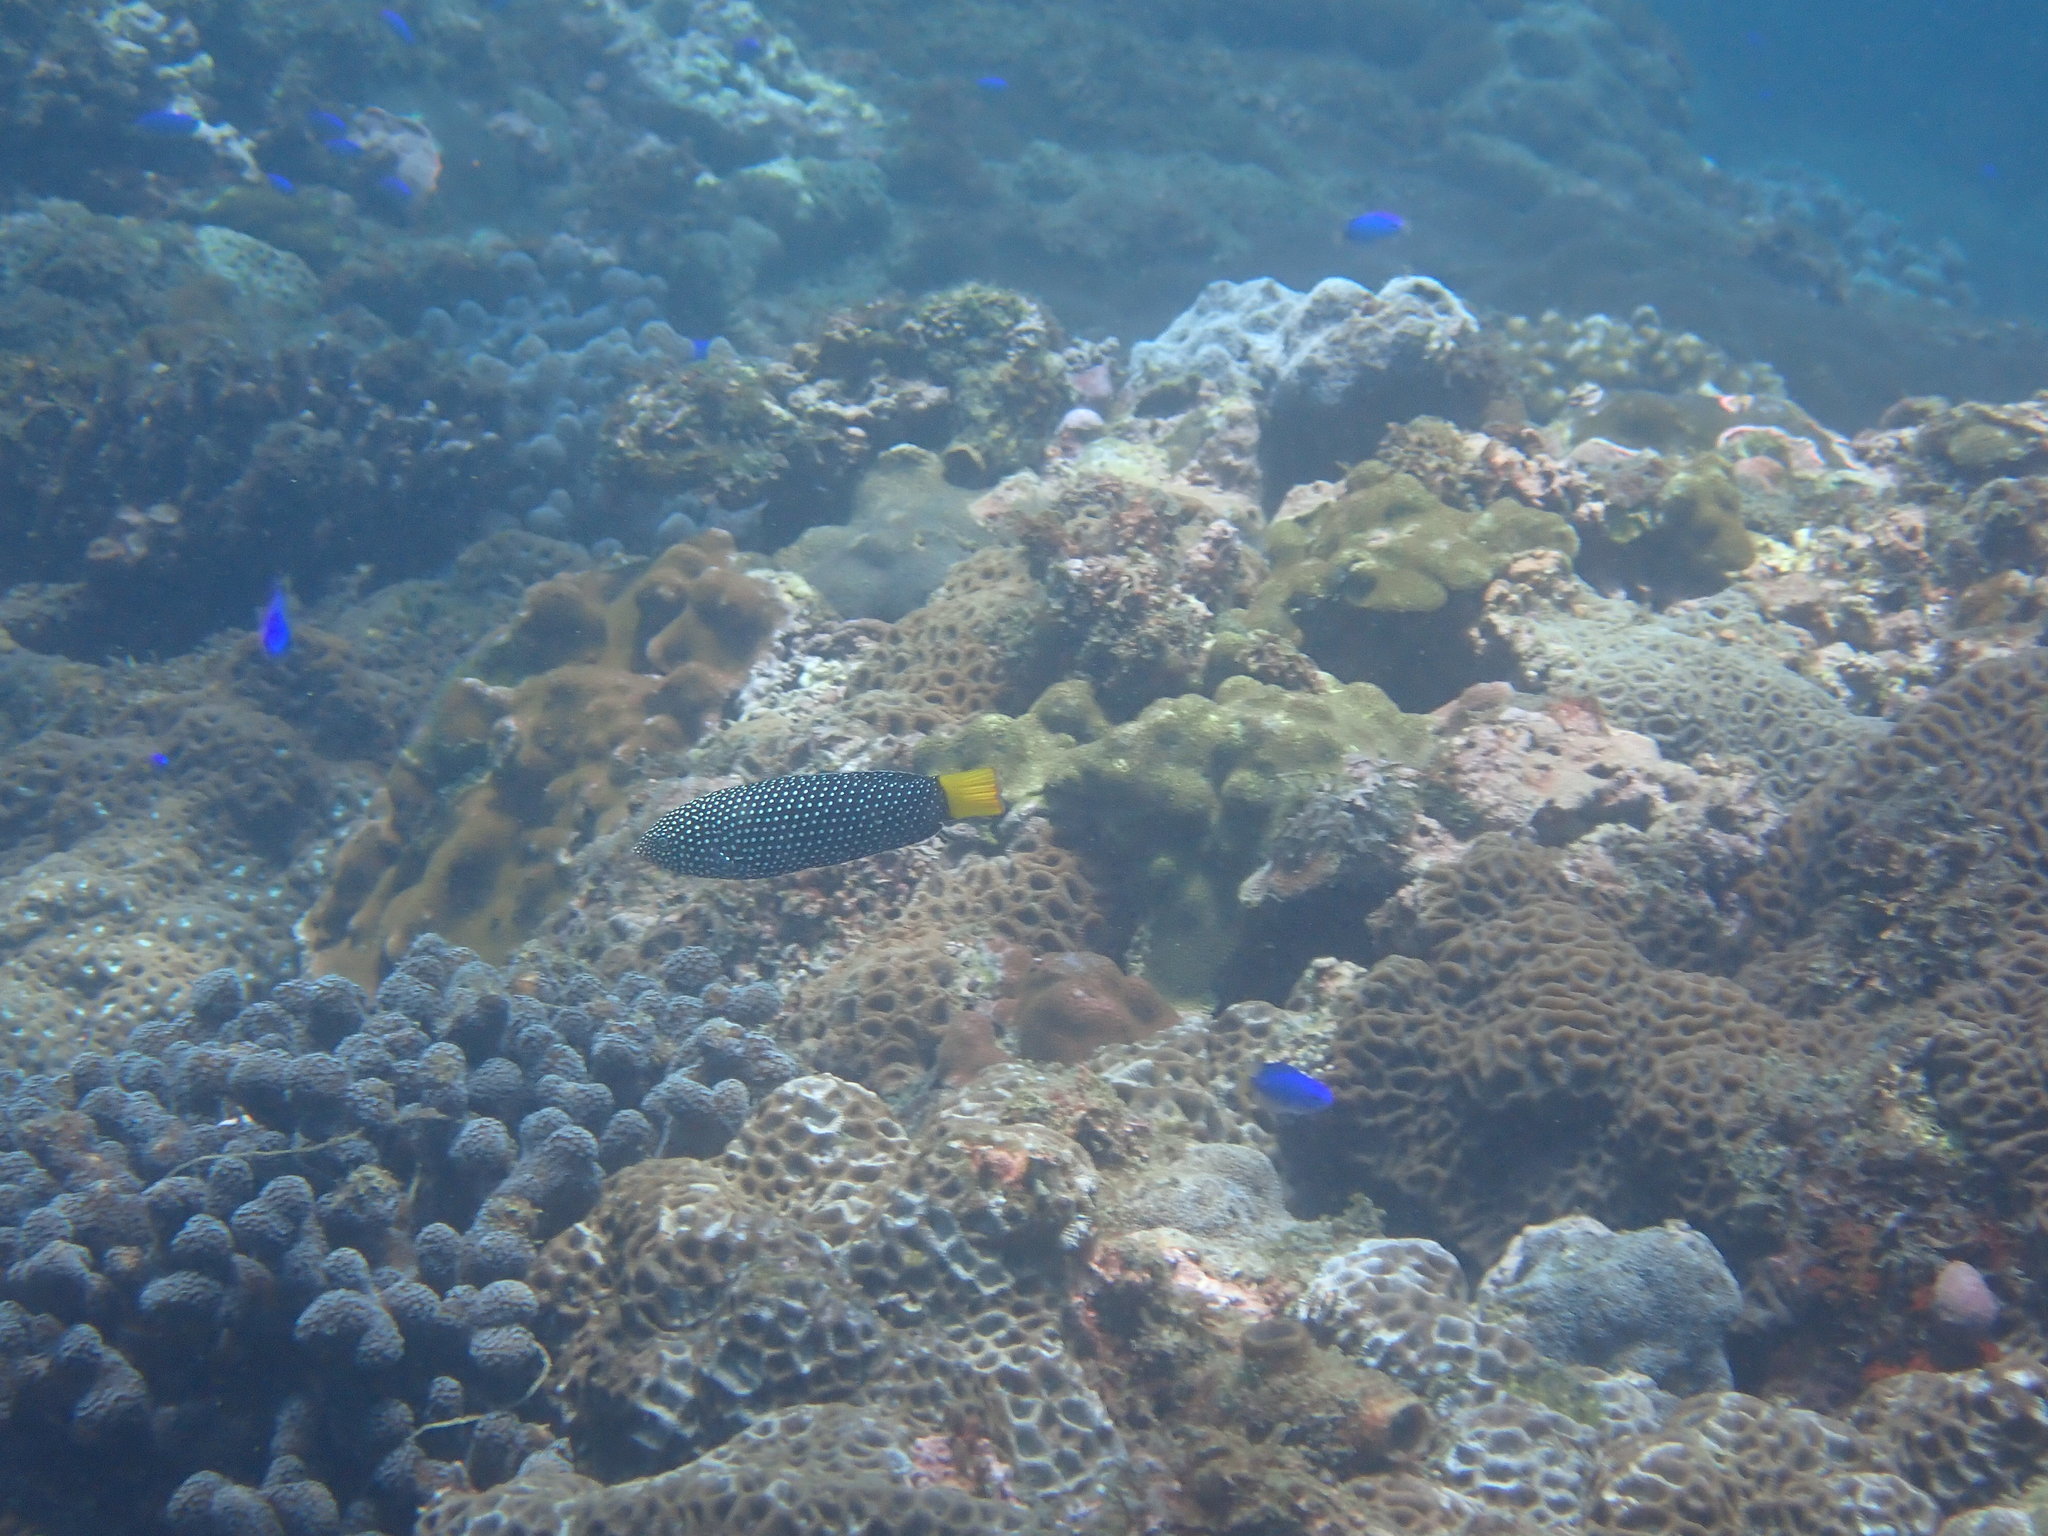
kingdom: Animalia
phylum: Chordata
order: Perciformes
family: Labridae
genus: Anampses
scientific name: Anampses meleagrides
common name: Yellowtail wrasse
